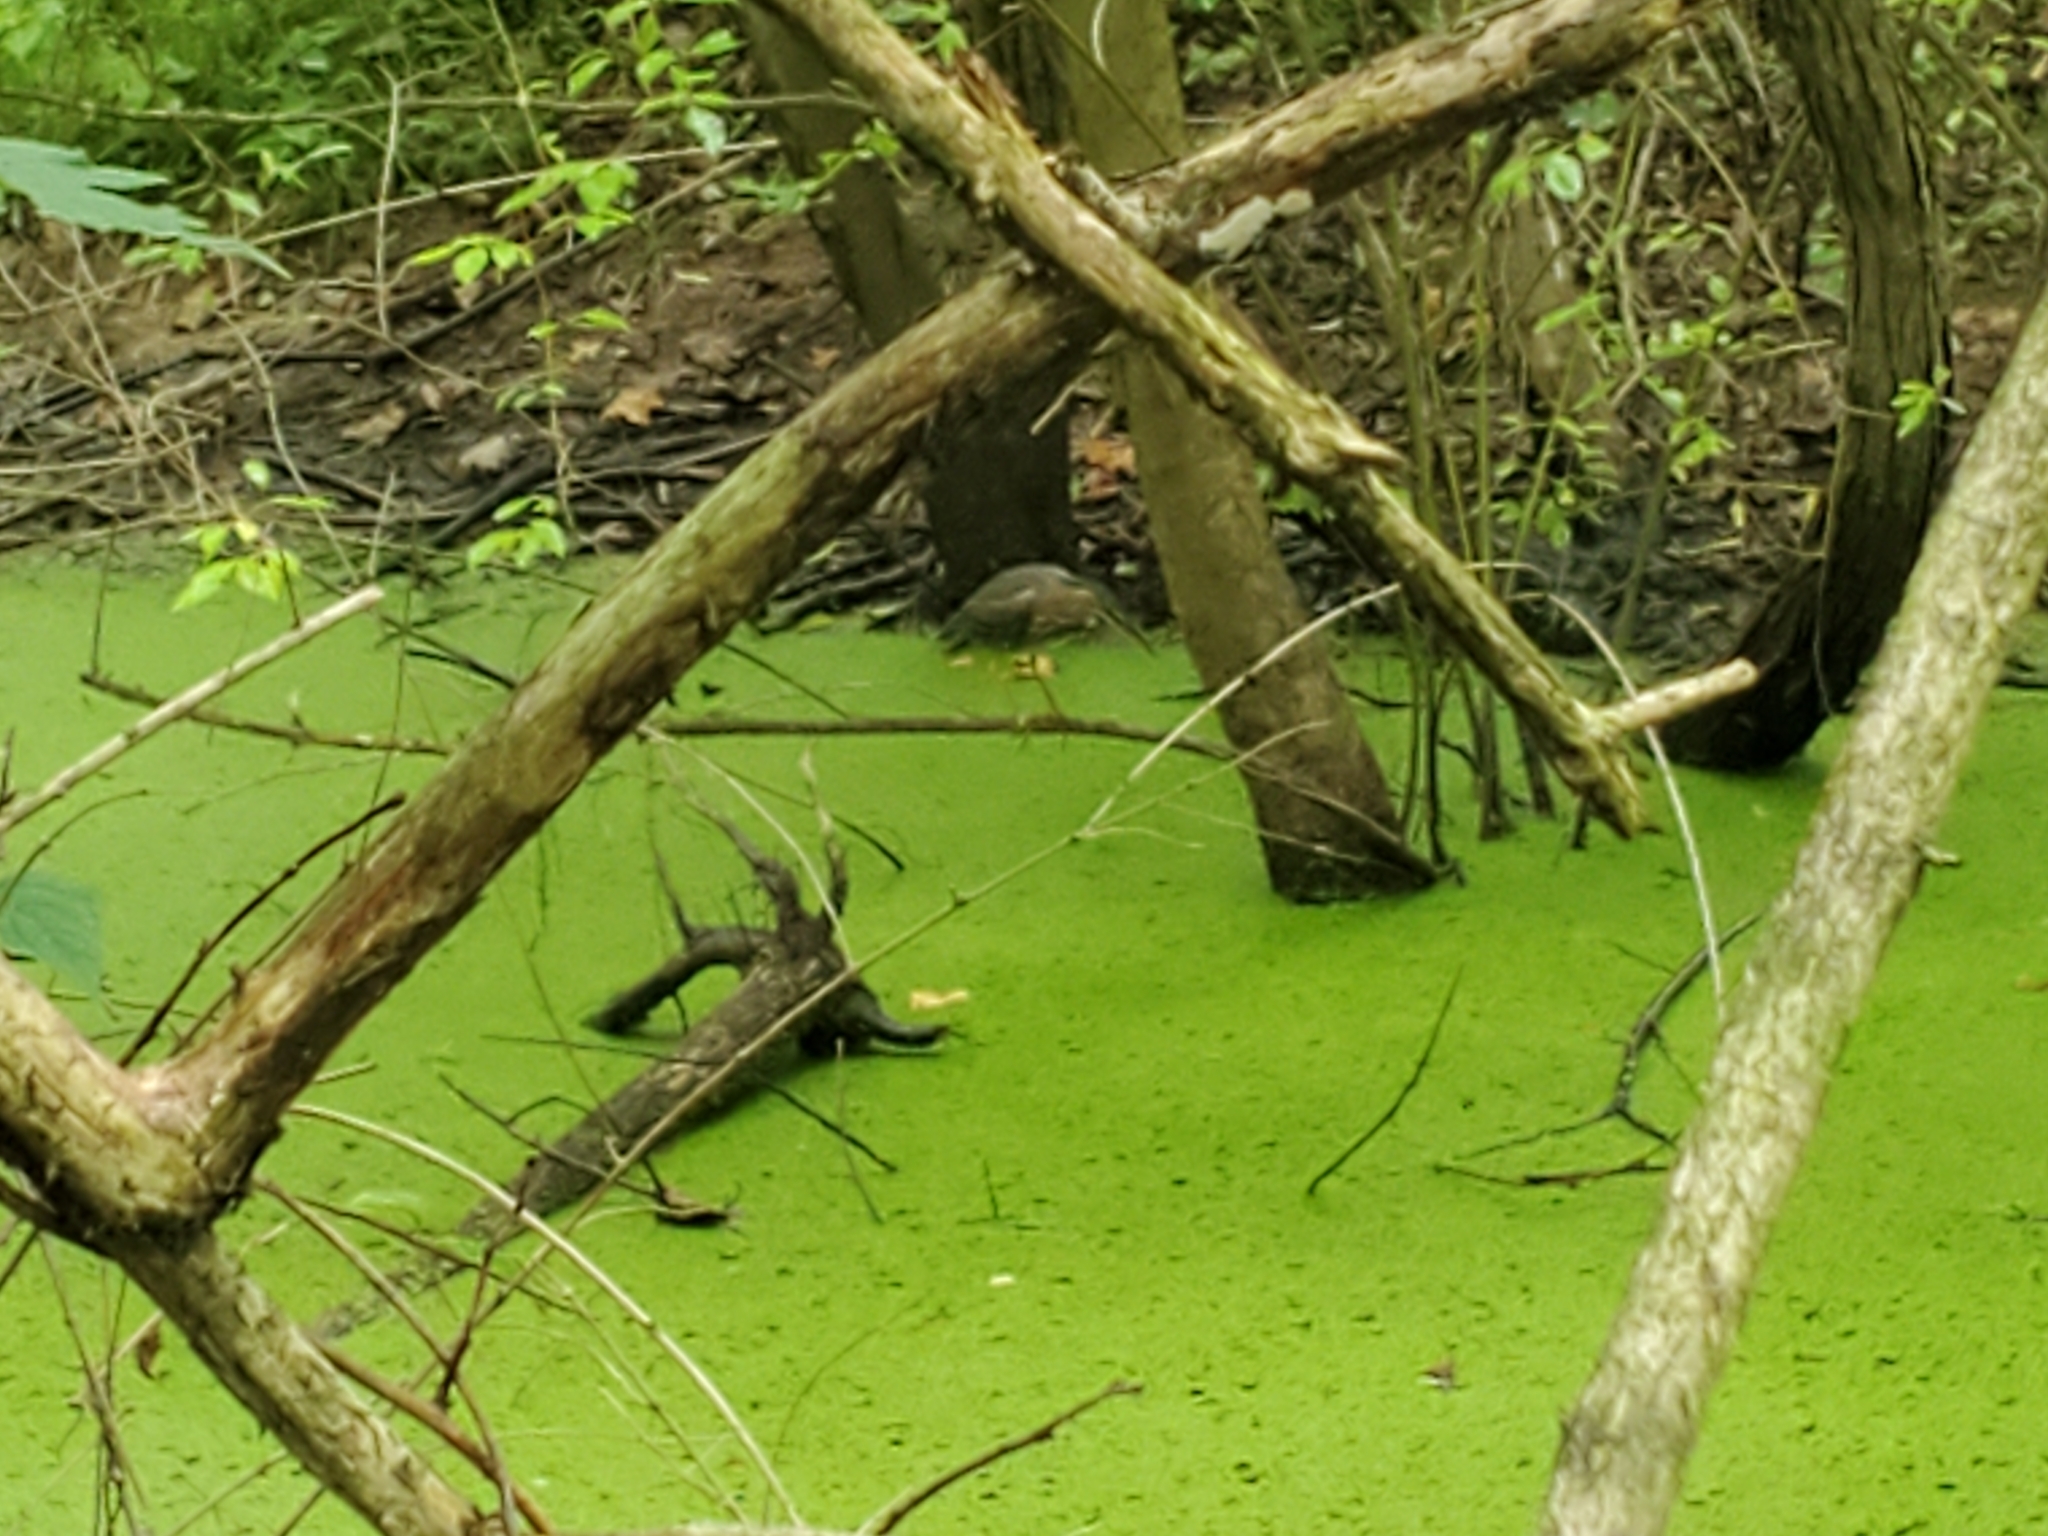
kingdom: Animalia
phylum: Chordata
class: Aves
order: Pelecaniformes
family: Ardeidae
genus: Butorides
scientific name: Butorides virescens
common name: Green heron
